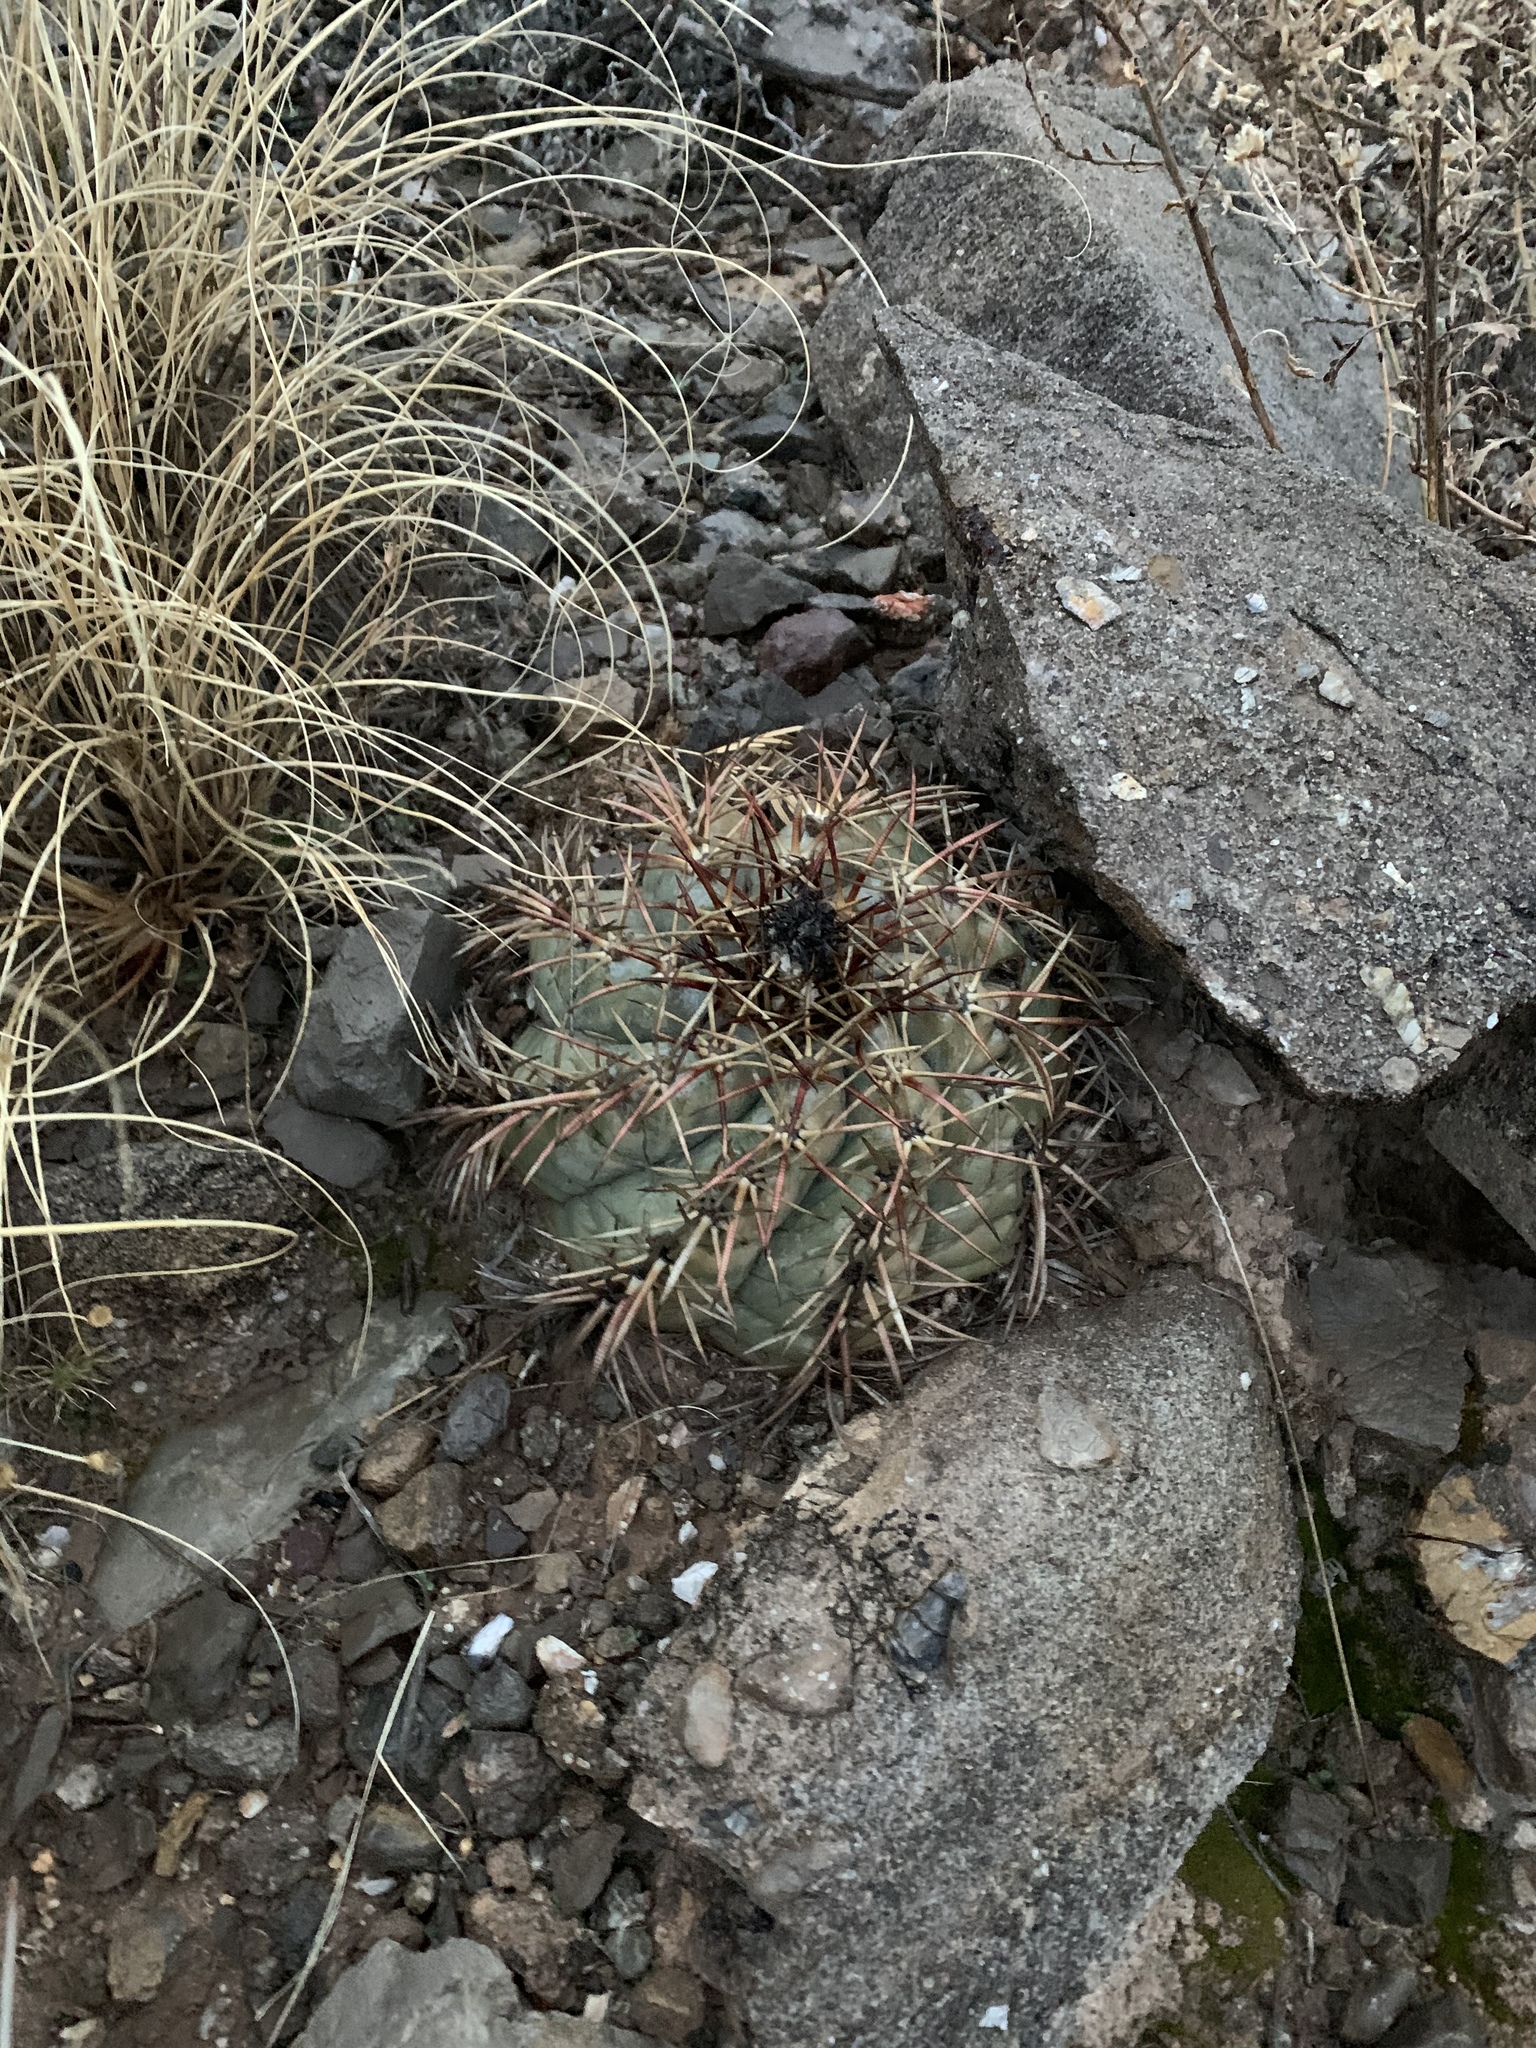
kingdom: Plantae
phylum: Tracheophyta
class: Magnoliopsida
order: Caryophyllales
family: Cactaceae
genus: Echinocactus
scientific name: Echinocactus horizonthalonius
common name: Devilshead
